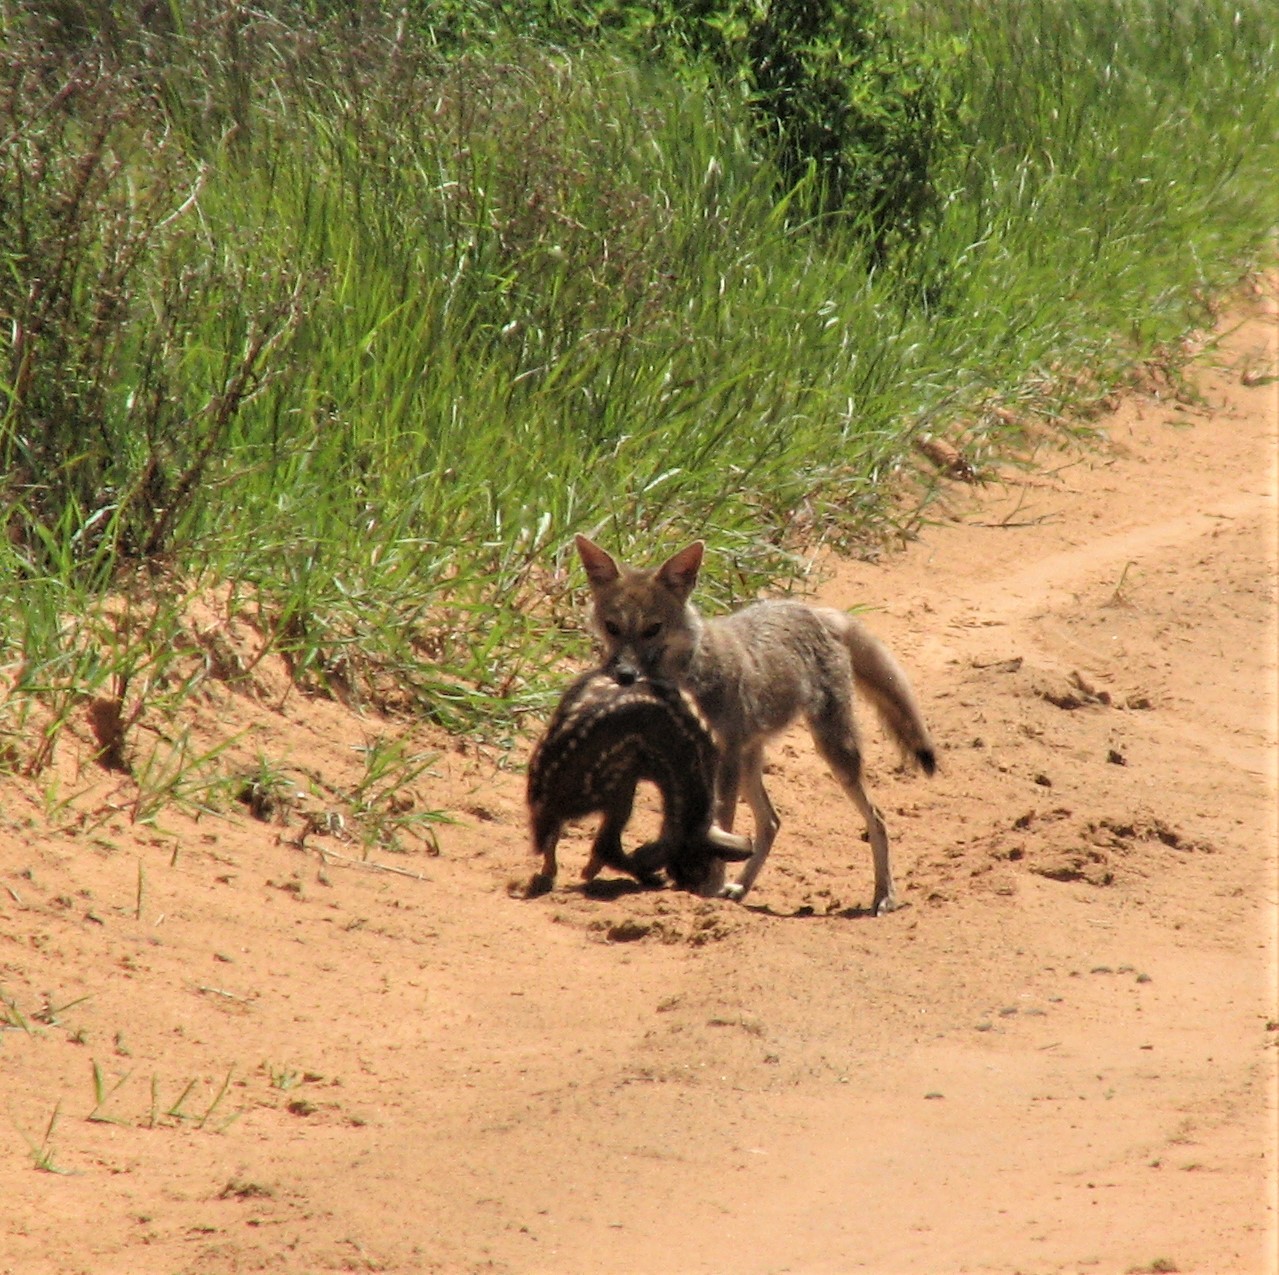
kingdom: Animalia
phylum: Chordata
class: Mammalia
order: Carnivora
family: Canidae
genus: Lycalopex
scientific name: Lycalopex gymnocercus
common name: Pampas fox
